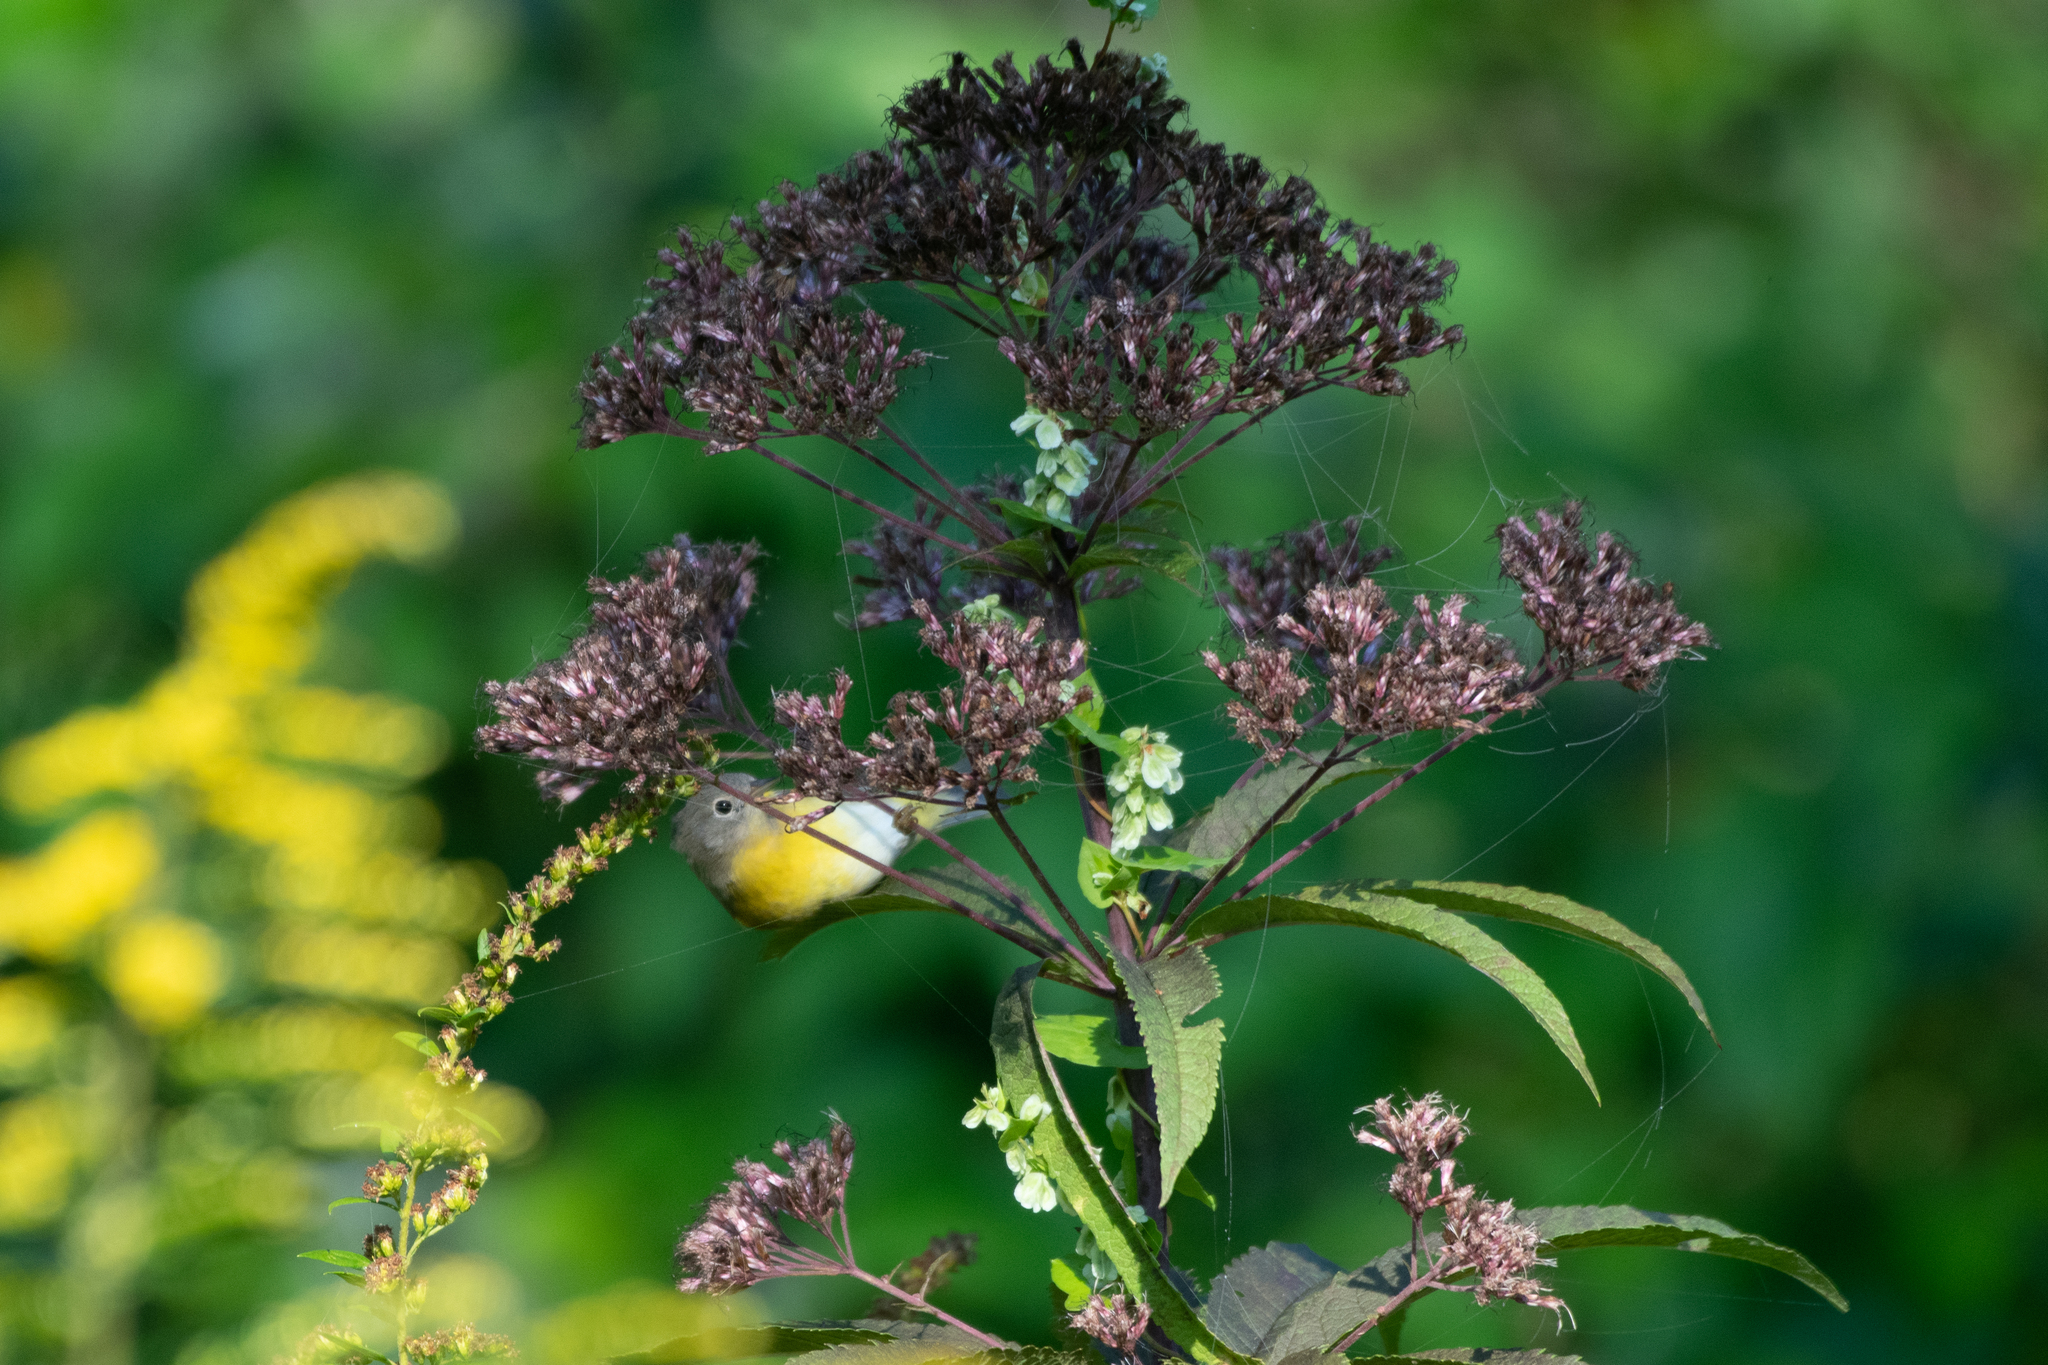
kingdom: Animalia
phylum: Chordata
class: Aves
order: Passeriformes
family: Parulidae
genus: Leiothlypis
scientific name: Leiothlypis ruficapilla
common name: Nashville warbler
